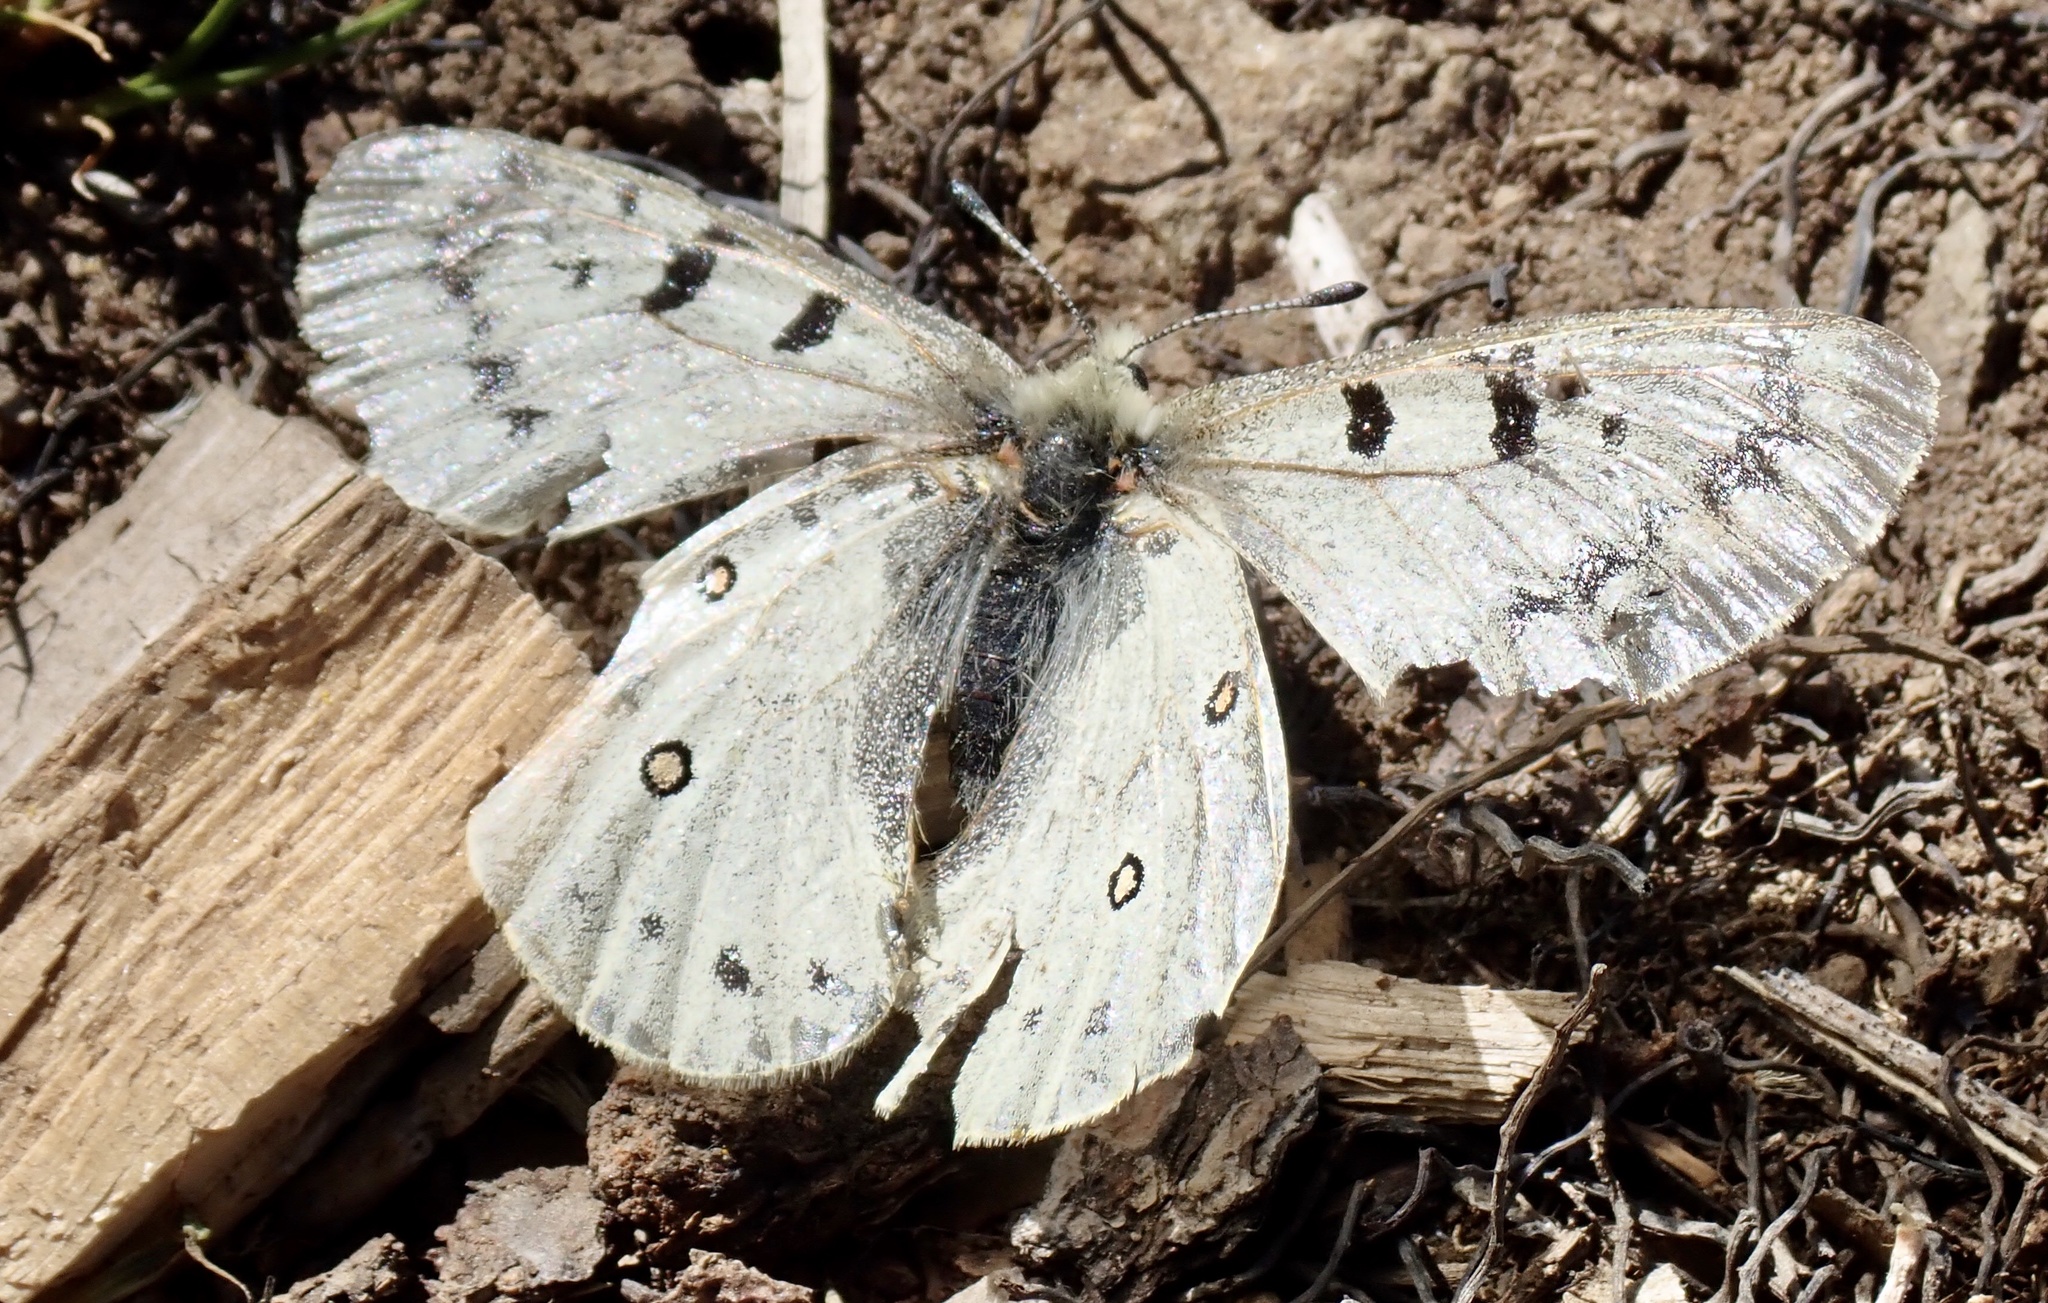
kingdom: Animalia
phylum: Arthropoda
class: Insecta
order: Lepidoptera
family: Papilionidae
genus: Parnassius
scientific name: Parnassius smintheus
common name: Mountain parnassian
